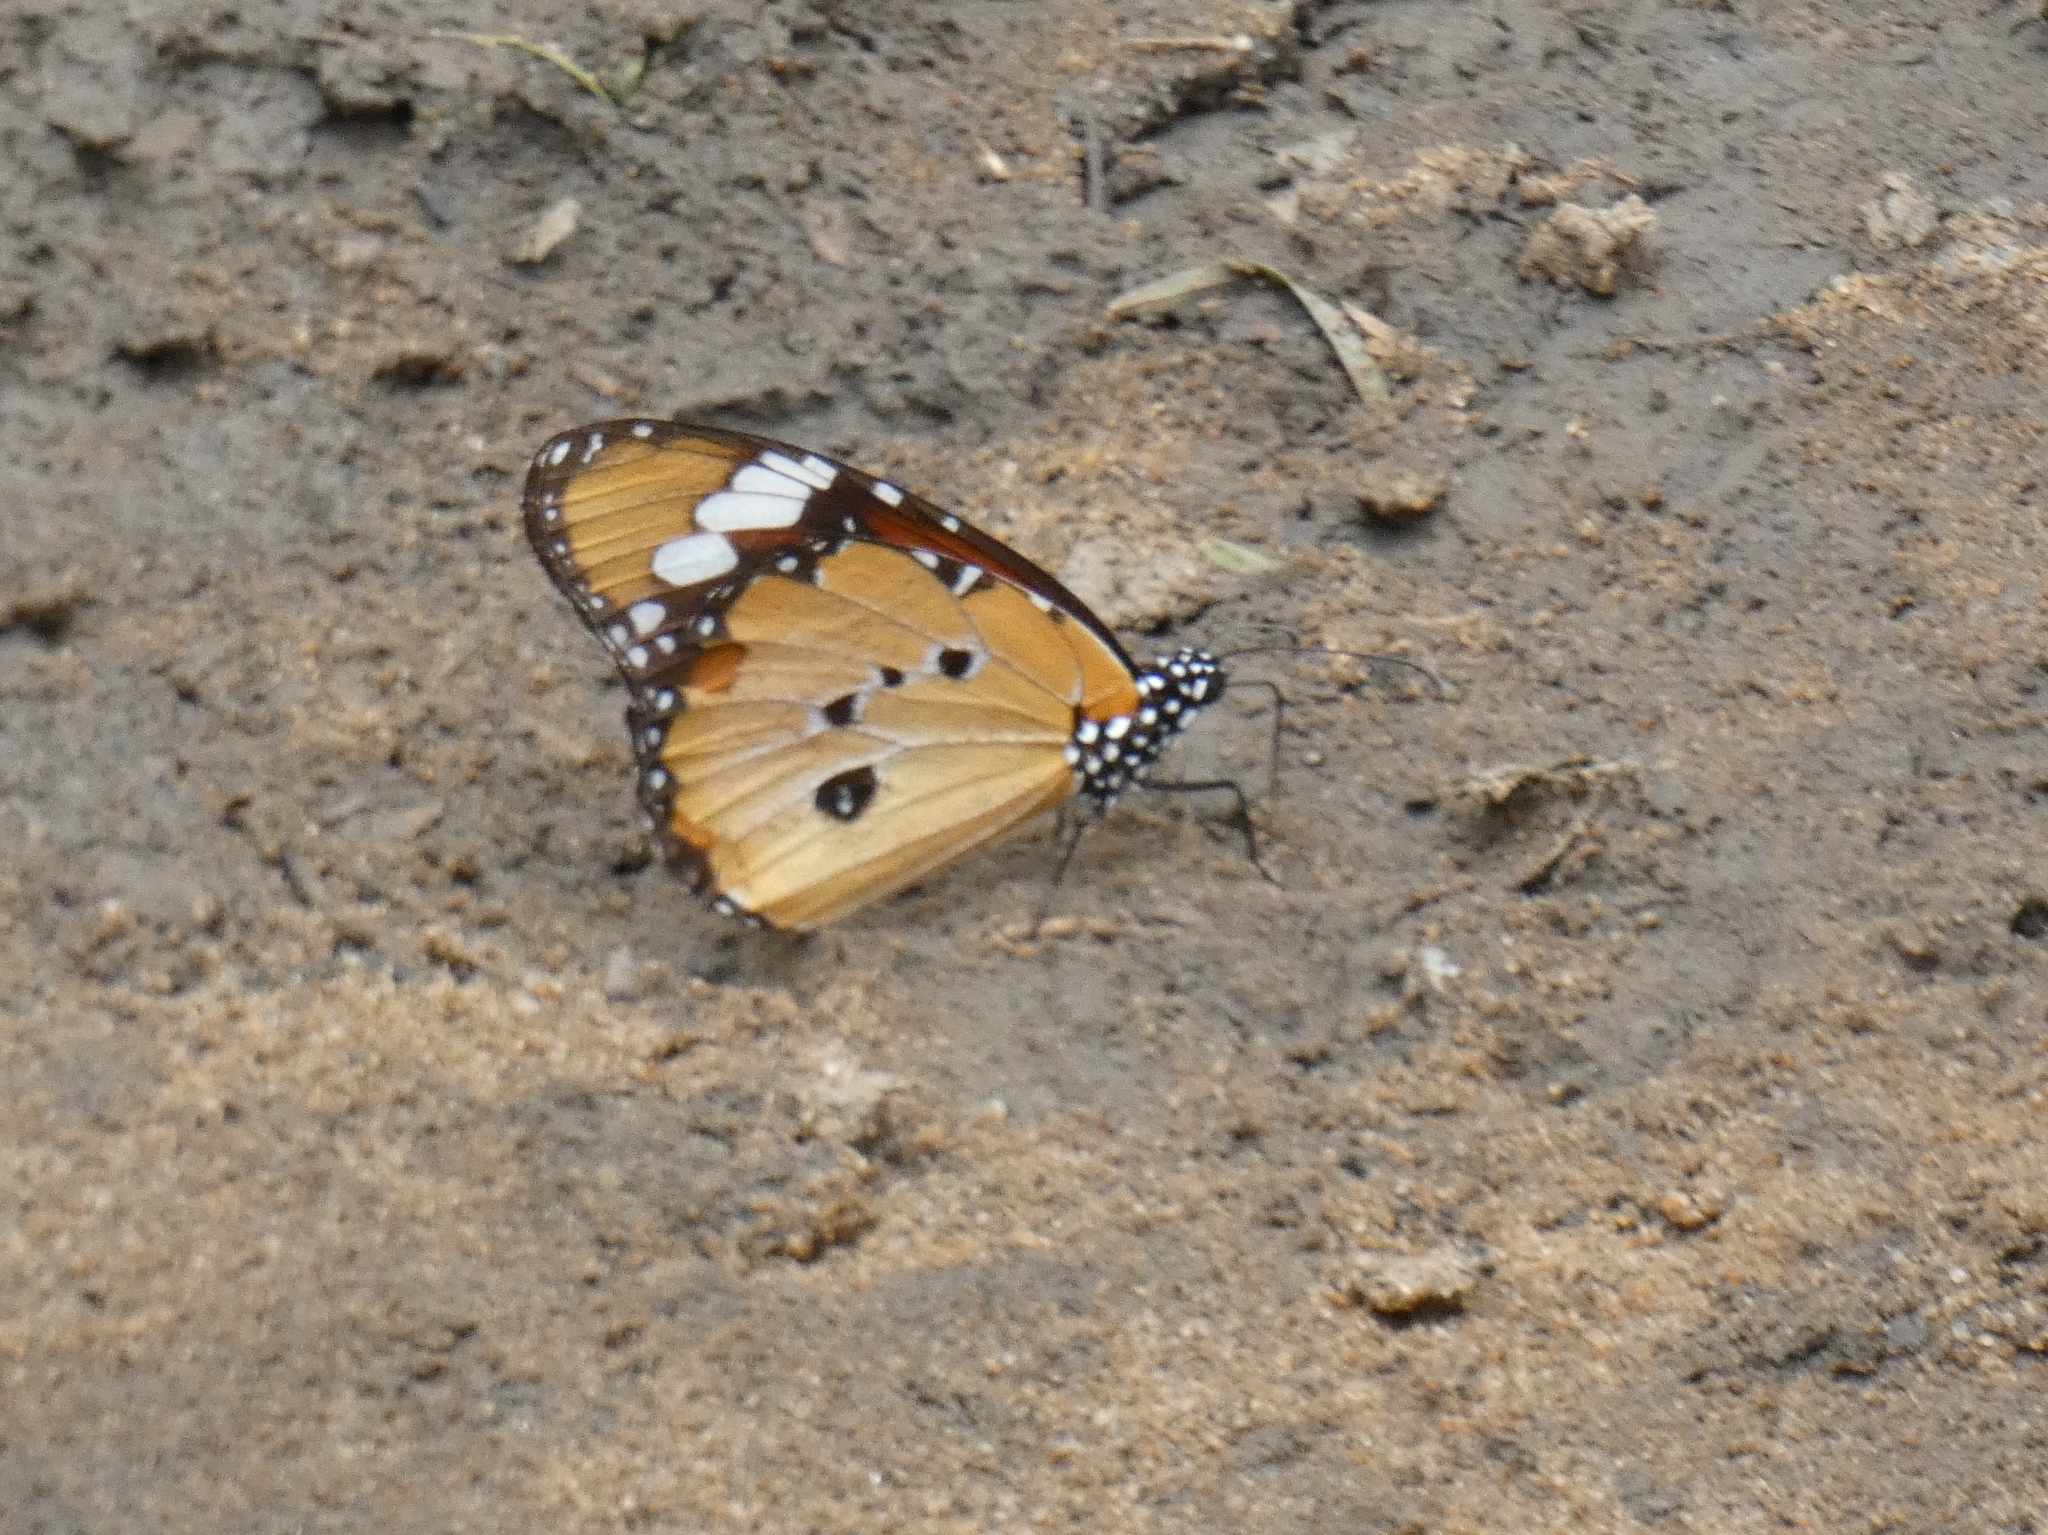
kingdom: Animalia
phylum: Arthropoda
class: Insecta
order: Lepidoptera
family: Nymphalidae
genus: Danaus
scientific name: Danaus chrysippus
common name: Plain tiger
